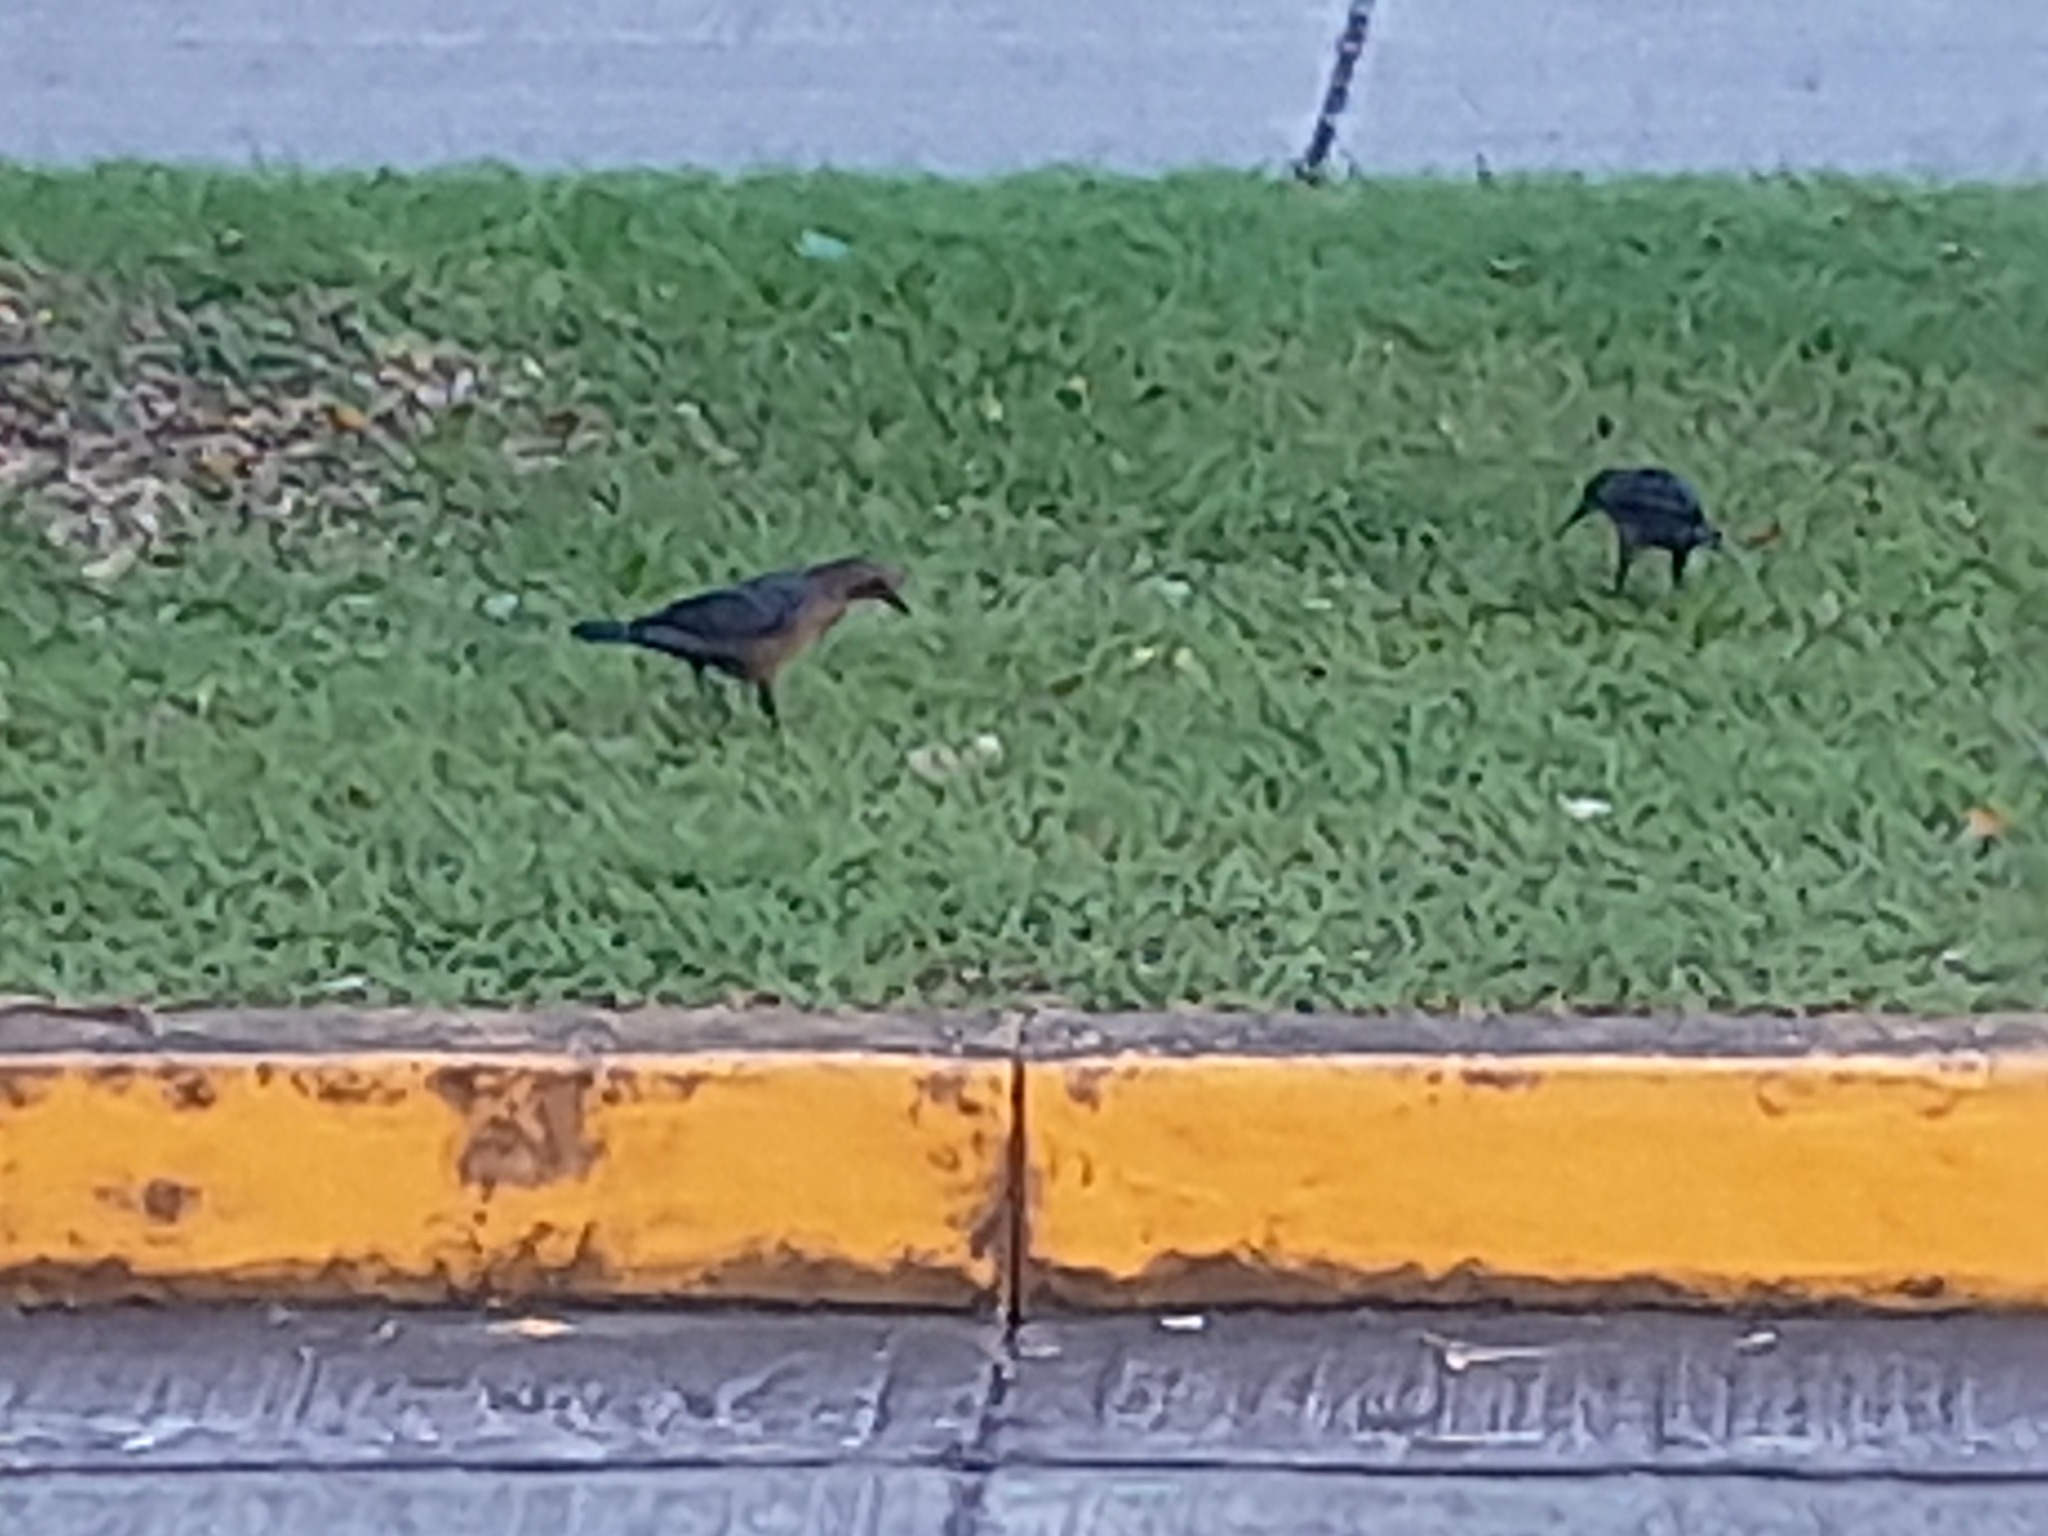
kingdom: Animalia
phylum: Chordata
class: Aves
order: Passeriformes
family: Icteridae
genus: Quiscalus
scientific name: Quiscalus mexicanus
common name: Great-tailed grackle
